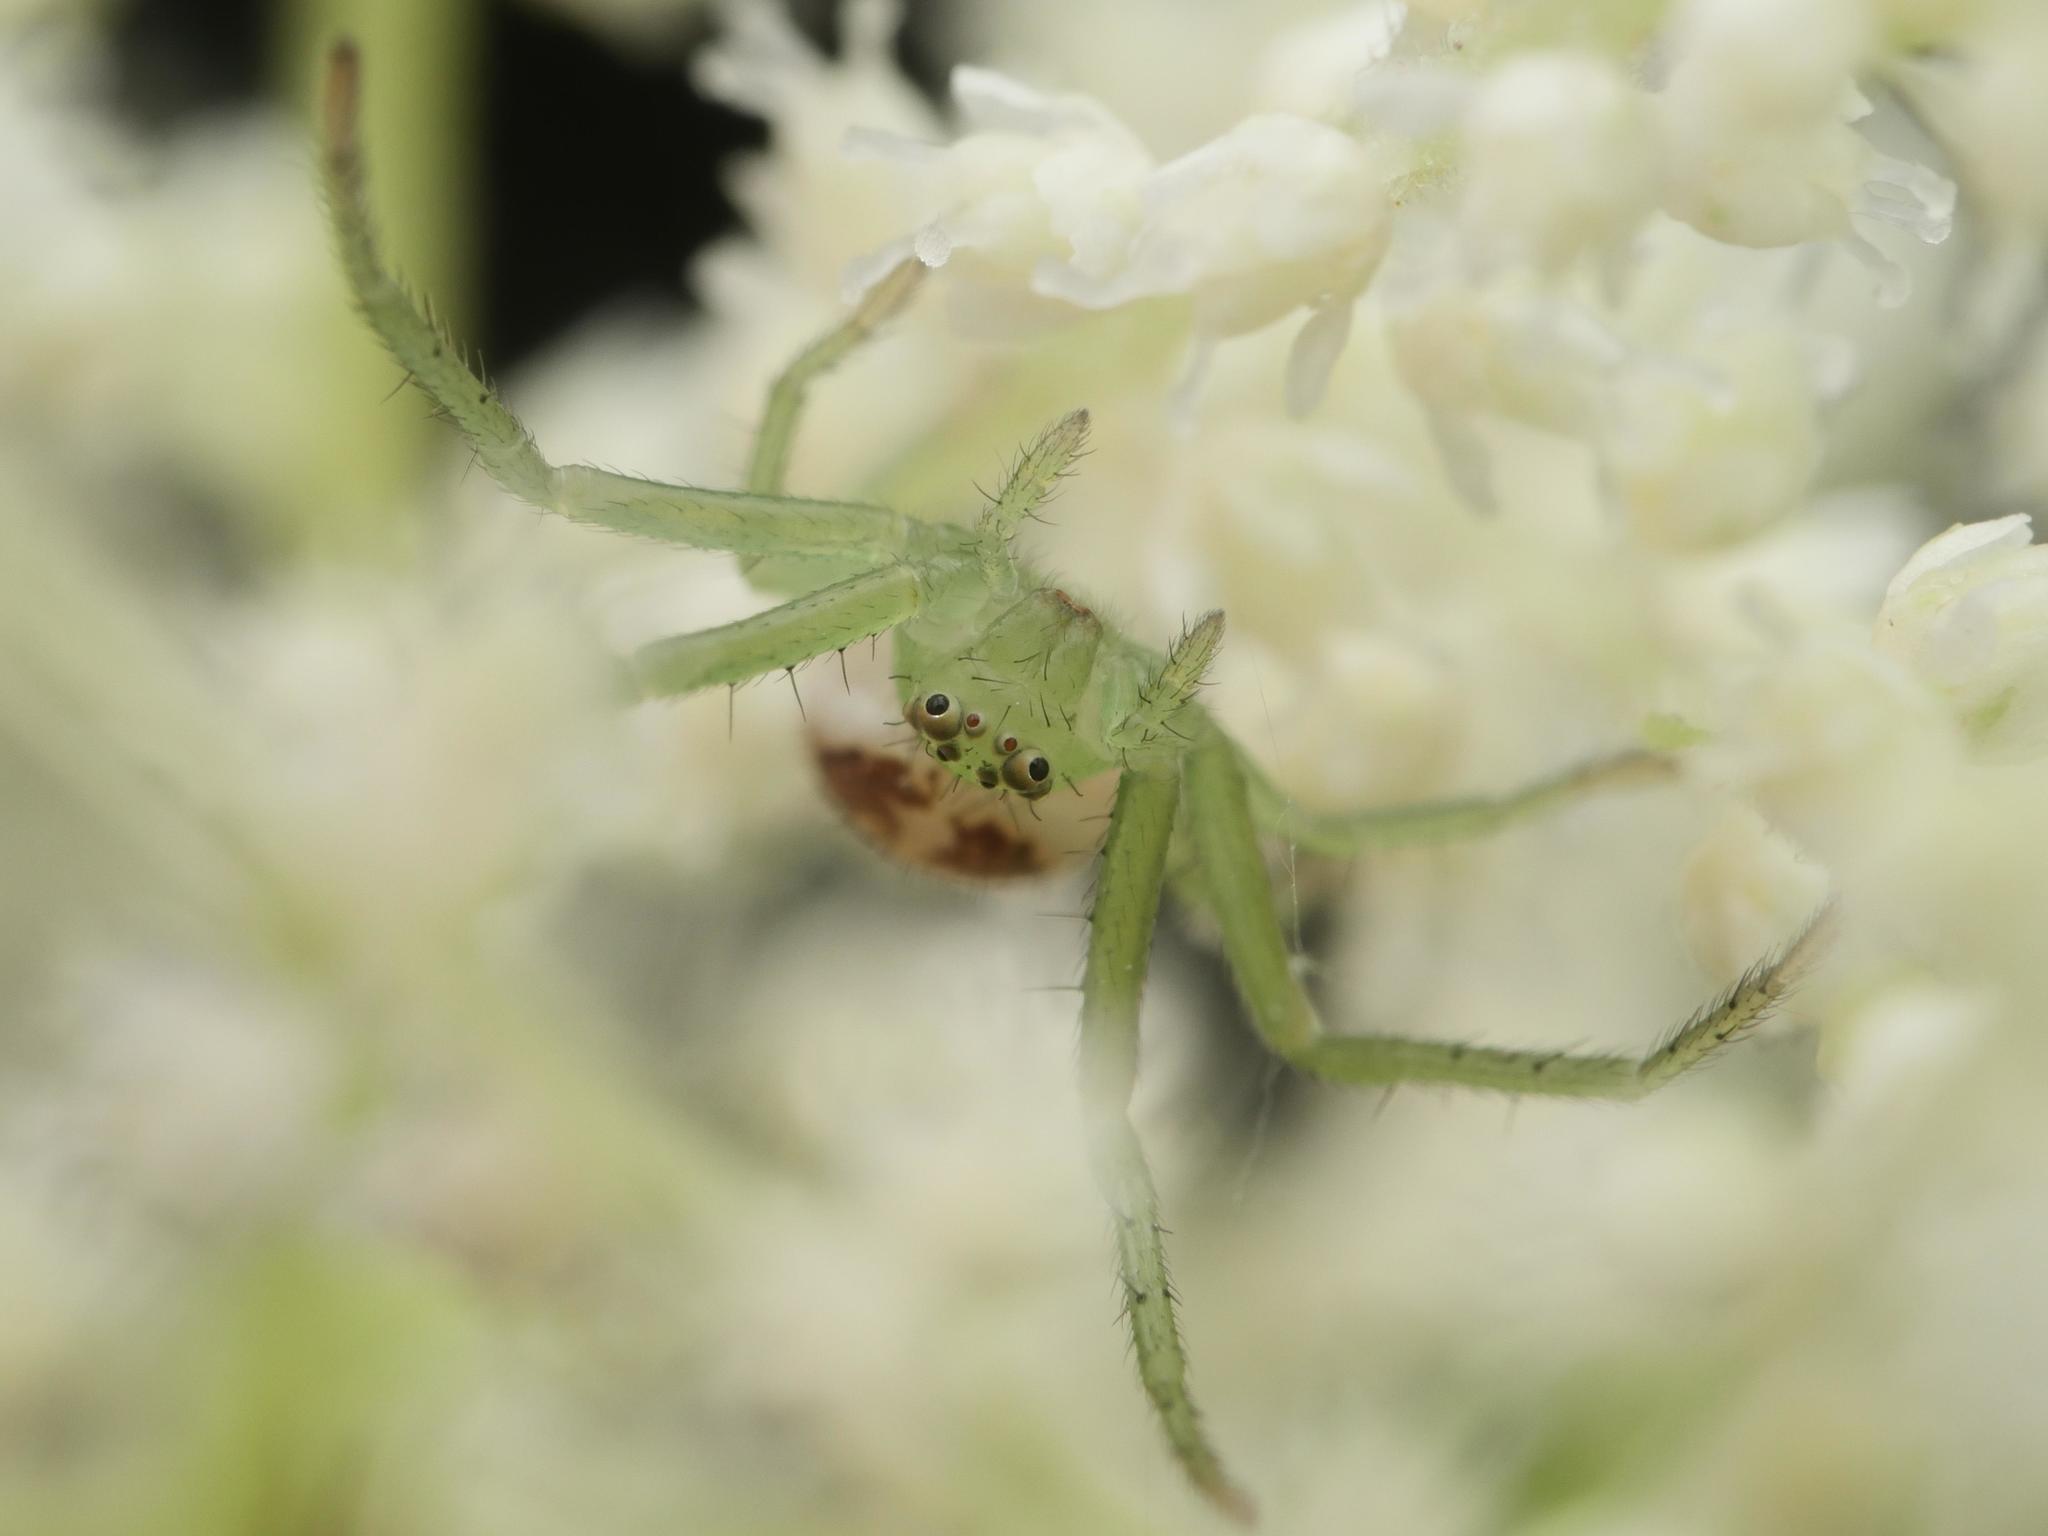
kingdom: Animalia
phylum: Arthropoda
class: Arachnida
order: Araneae
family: Thomisidae
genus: Diaea
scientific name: Diaea dorsata
